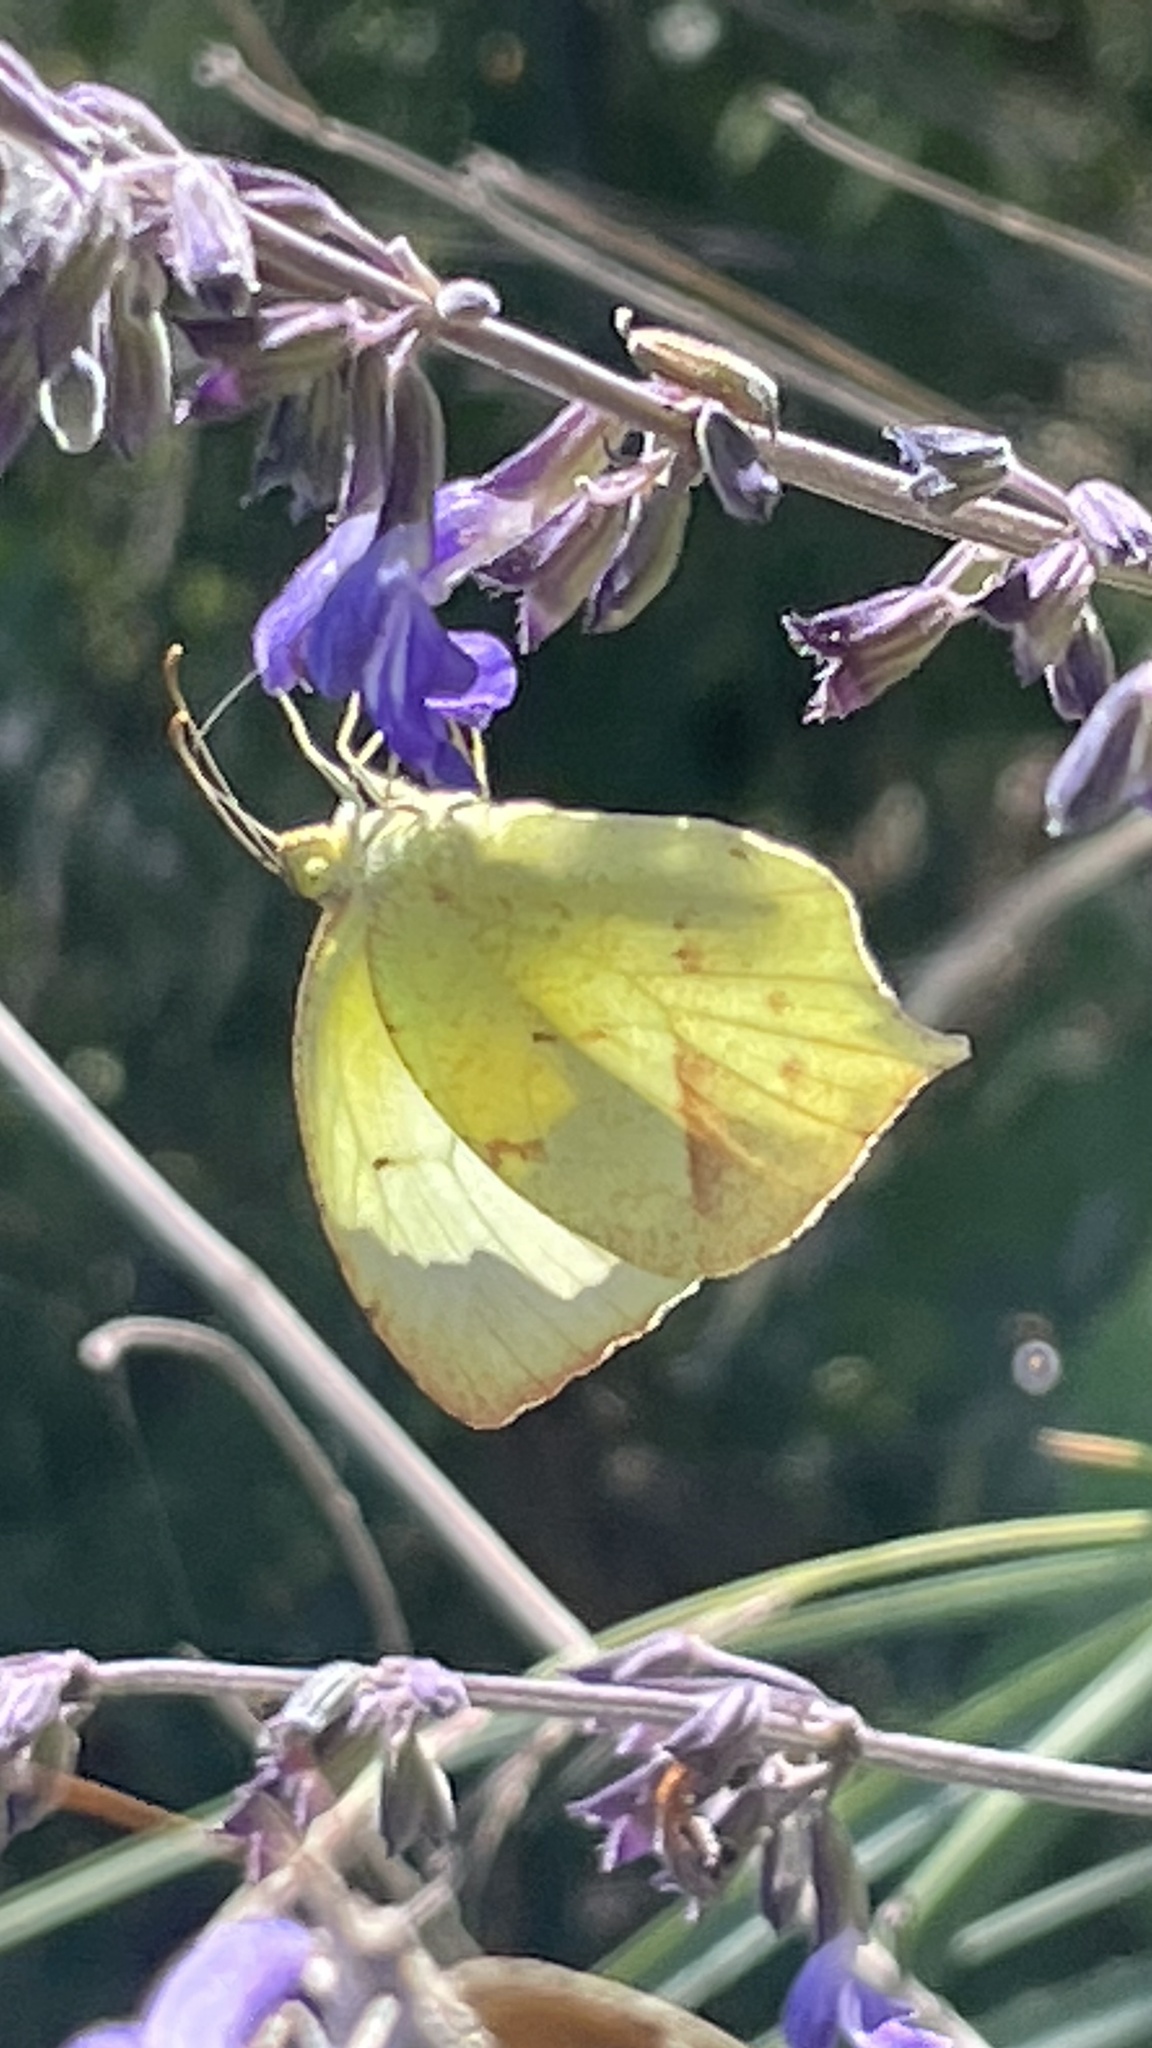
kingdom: Animalia
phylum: Arthropoda
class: Insecta
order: Lepidoptera
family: Pieridae
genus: Abaeis
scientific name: Abaeis mexicana
